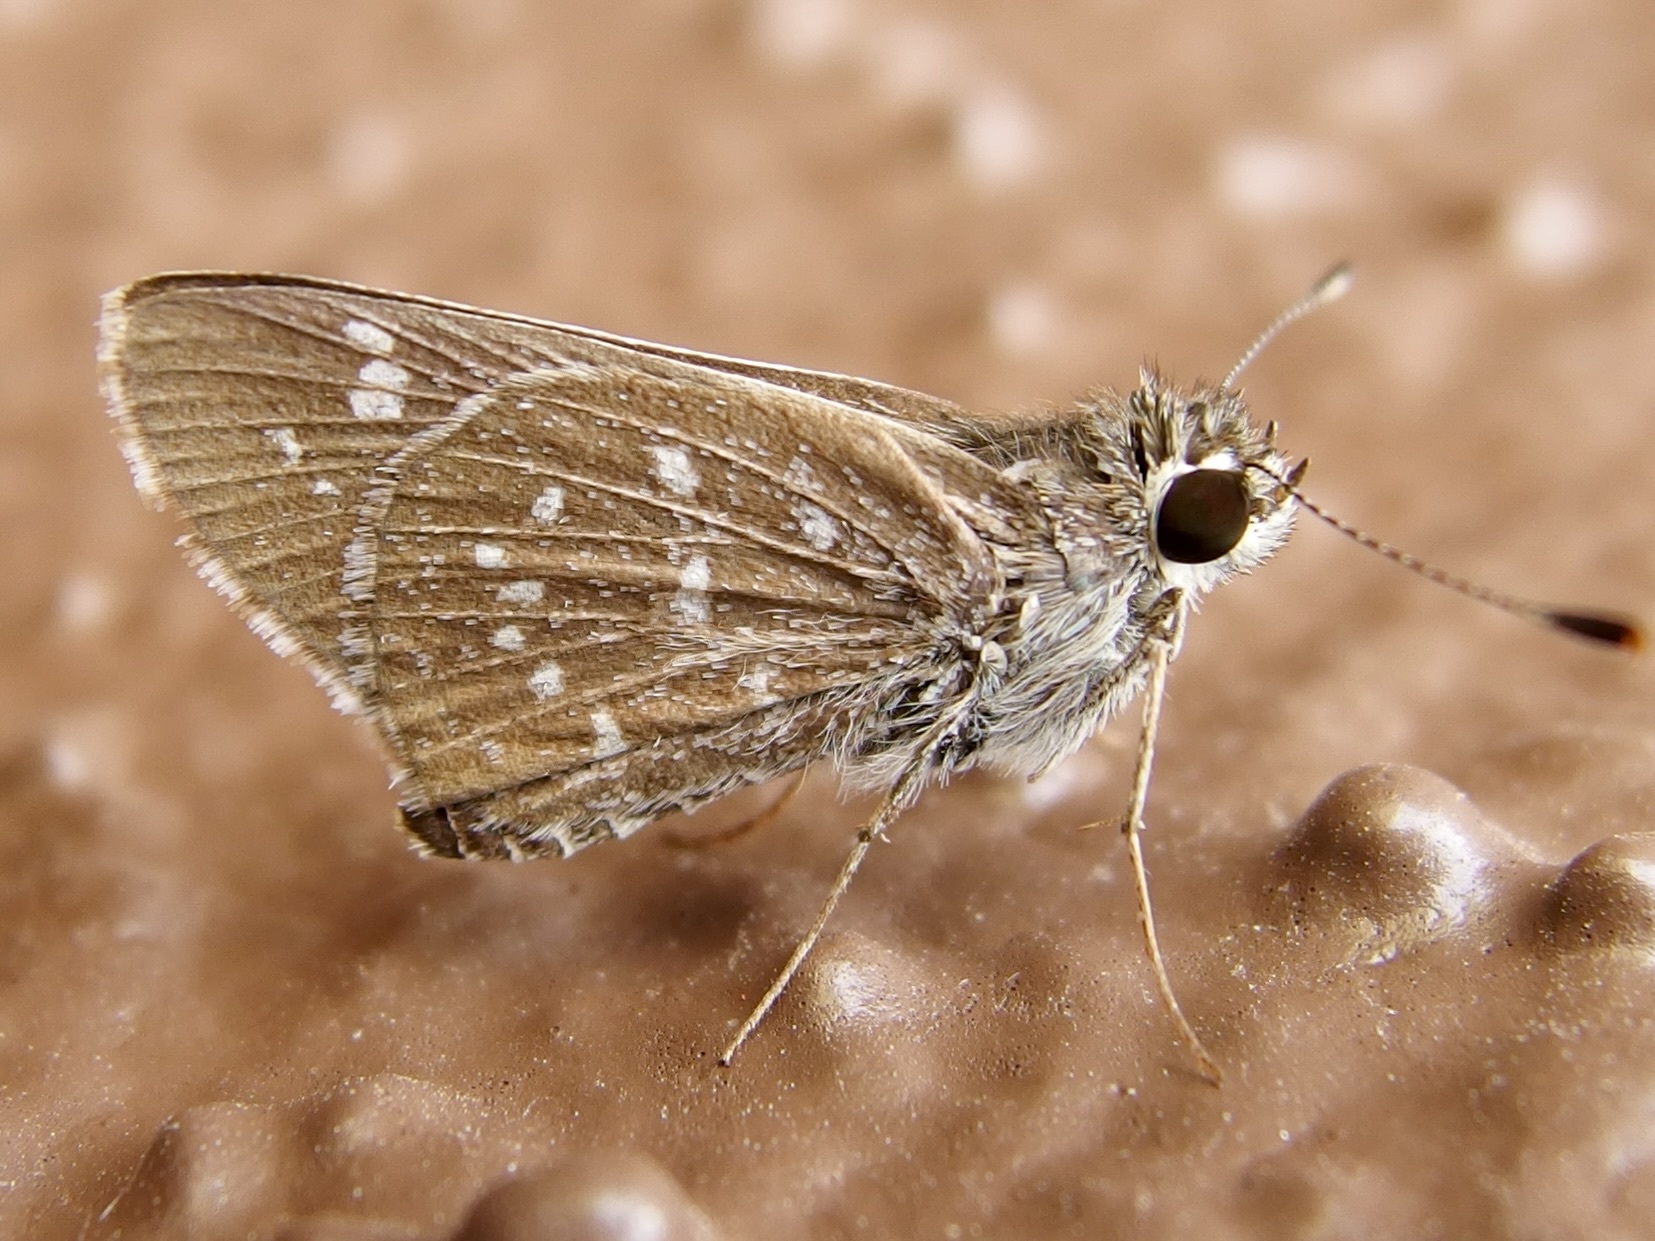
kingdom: Animalia
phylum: Arthropoda
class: Insecta
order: Lepidoptera
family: Hesperiidae
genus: Mastor
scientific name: Mastor tolteca
